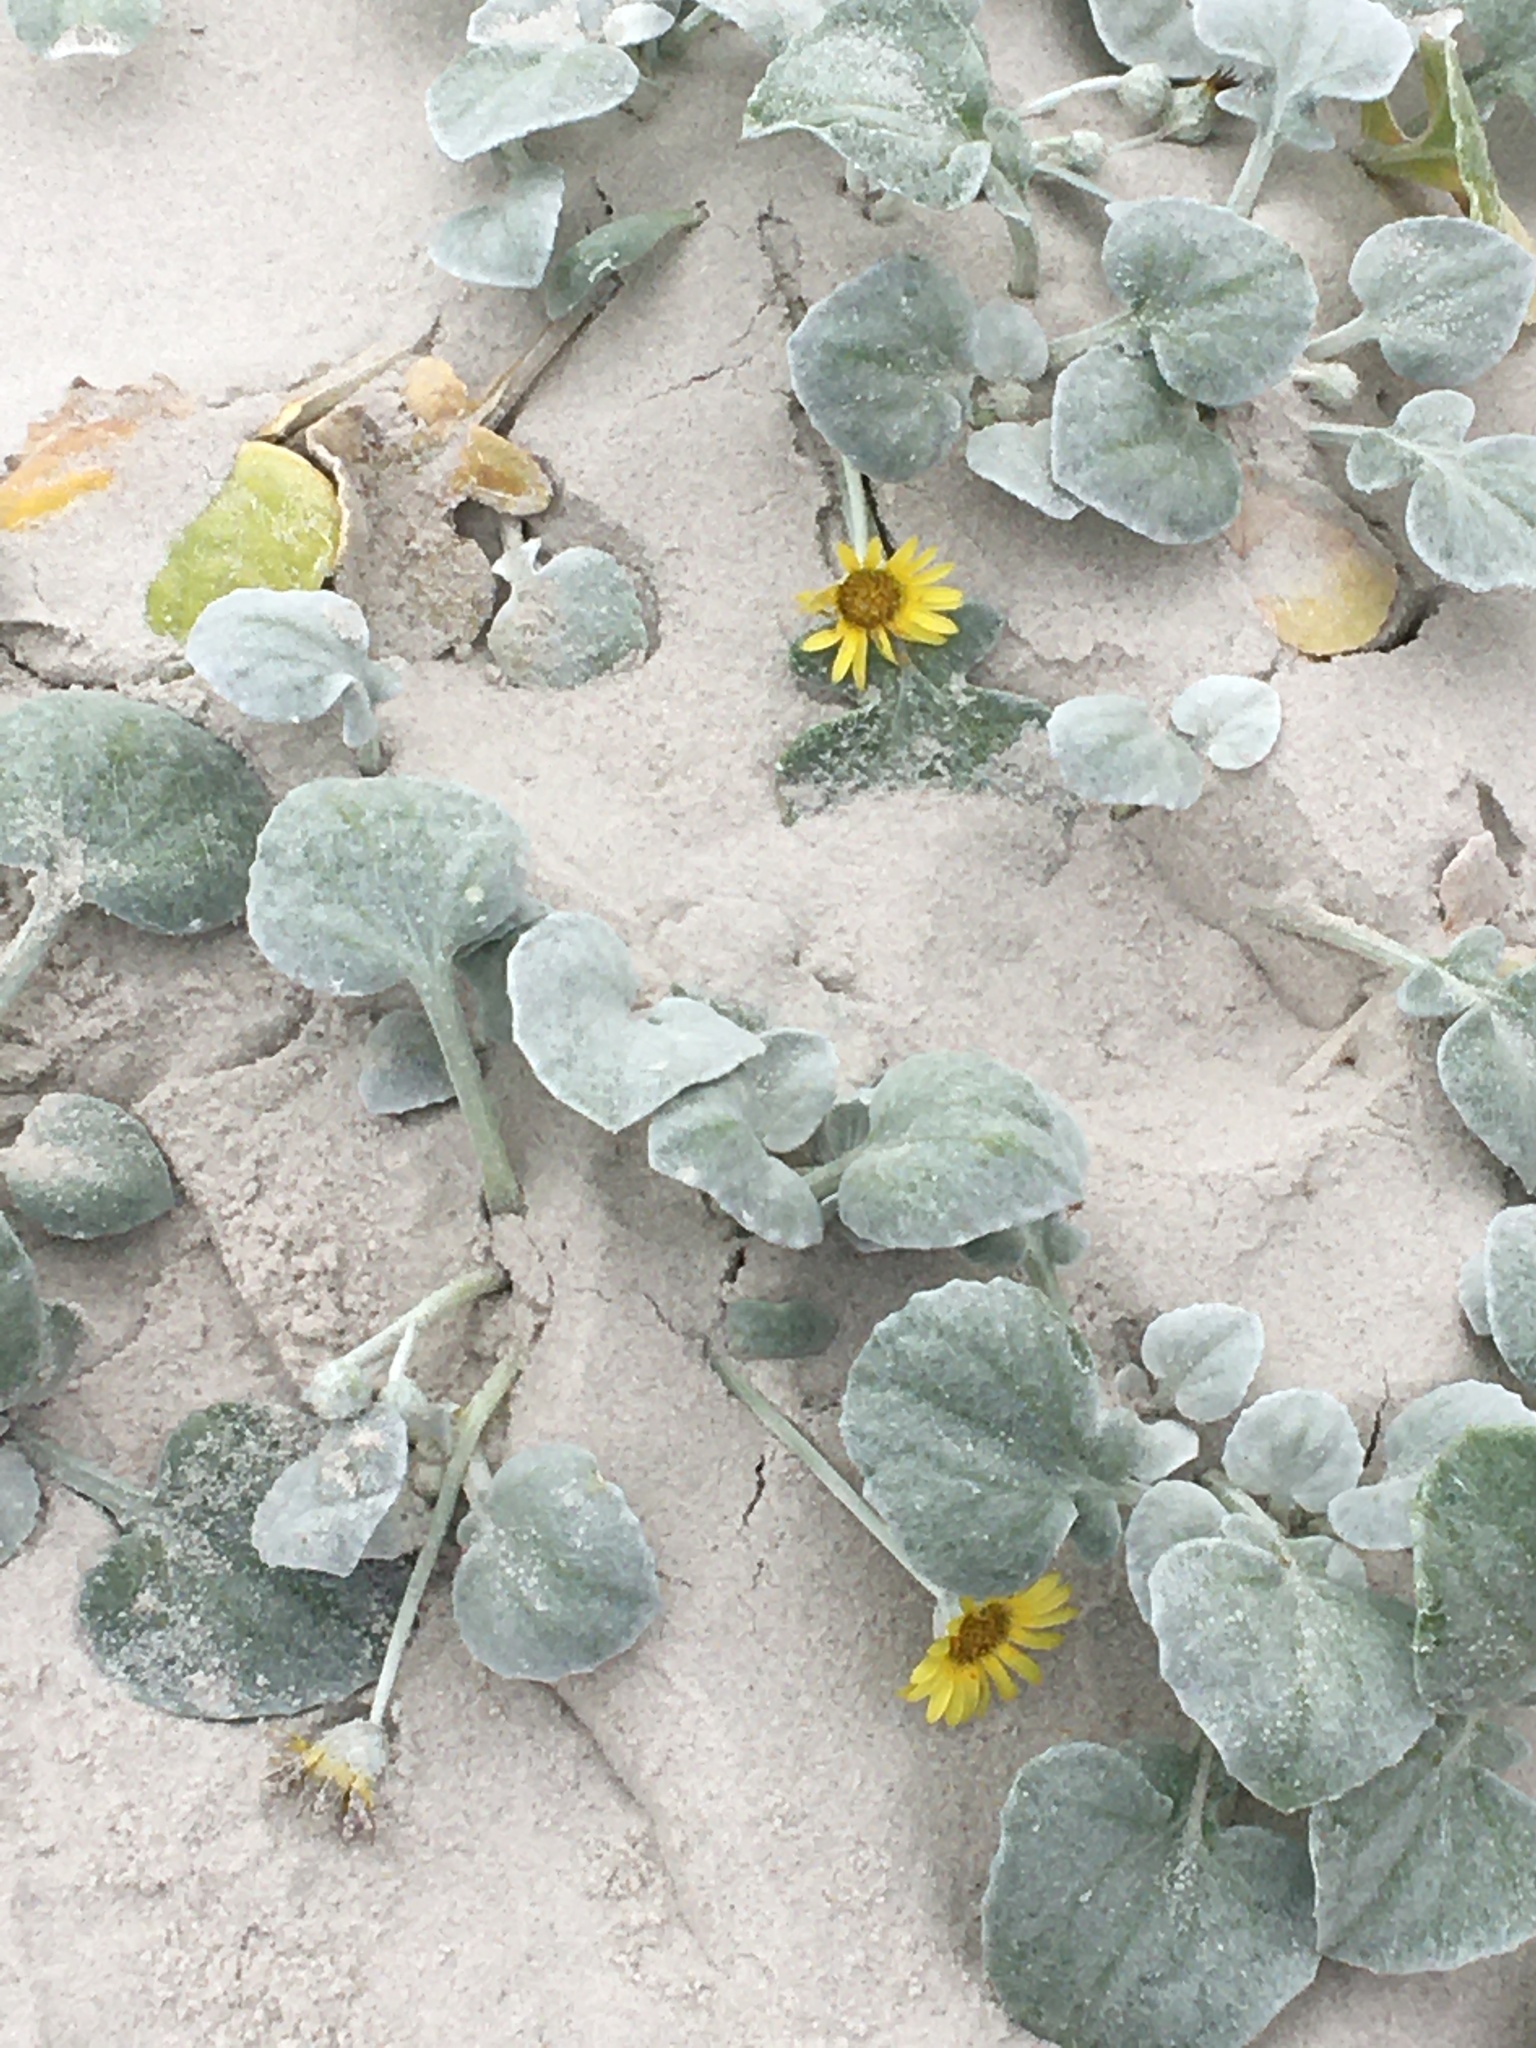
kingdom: Plantae
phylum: Tracheophyta
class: Magnoliopsida
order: Asterales
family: Asteraceae
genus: Arctotheca
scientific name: Arctotheca populifolia
